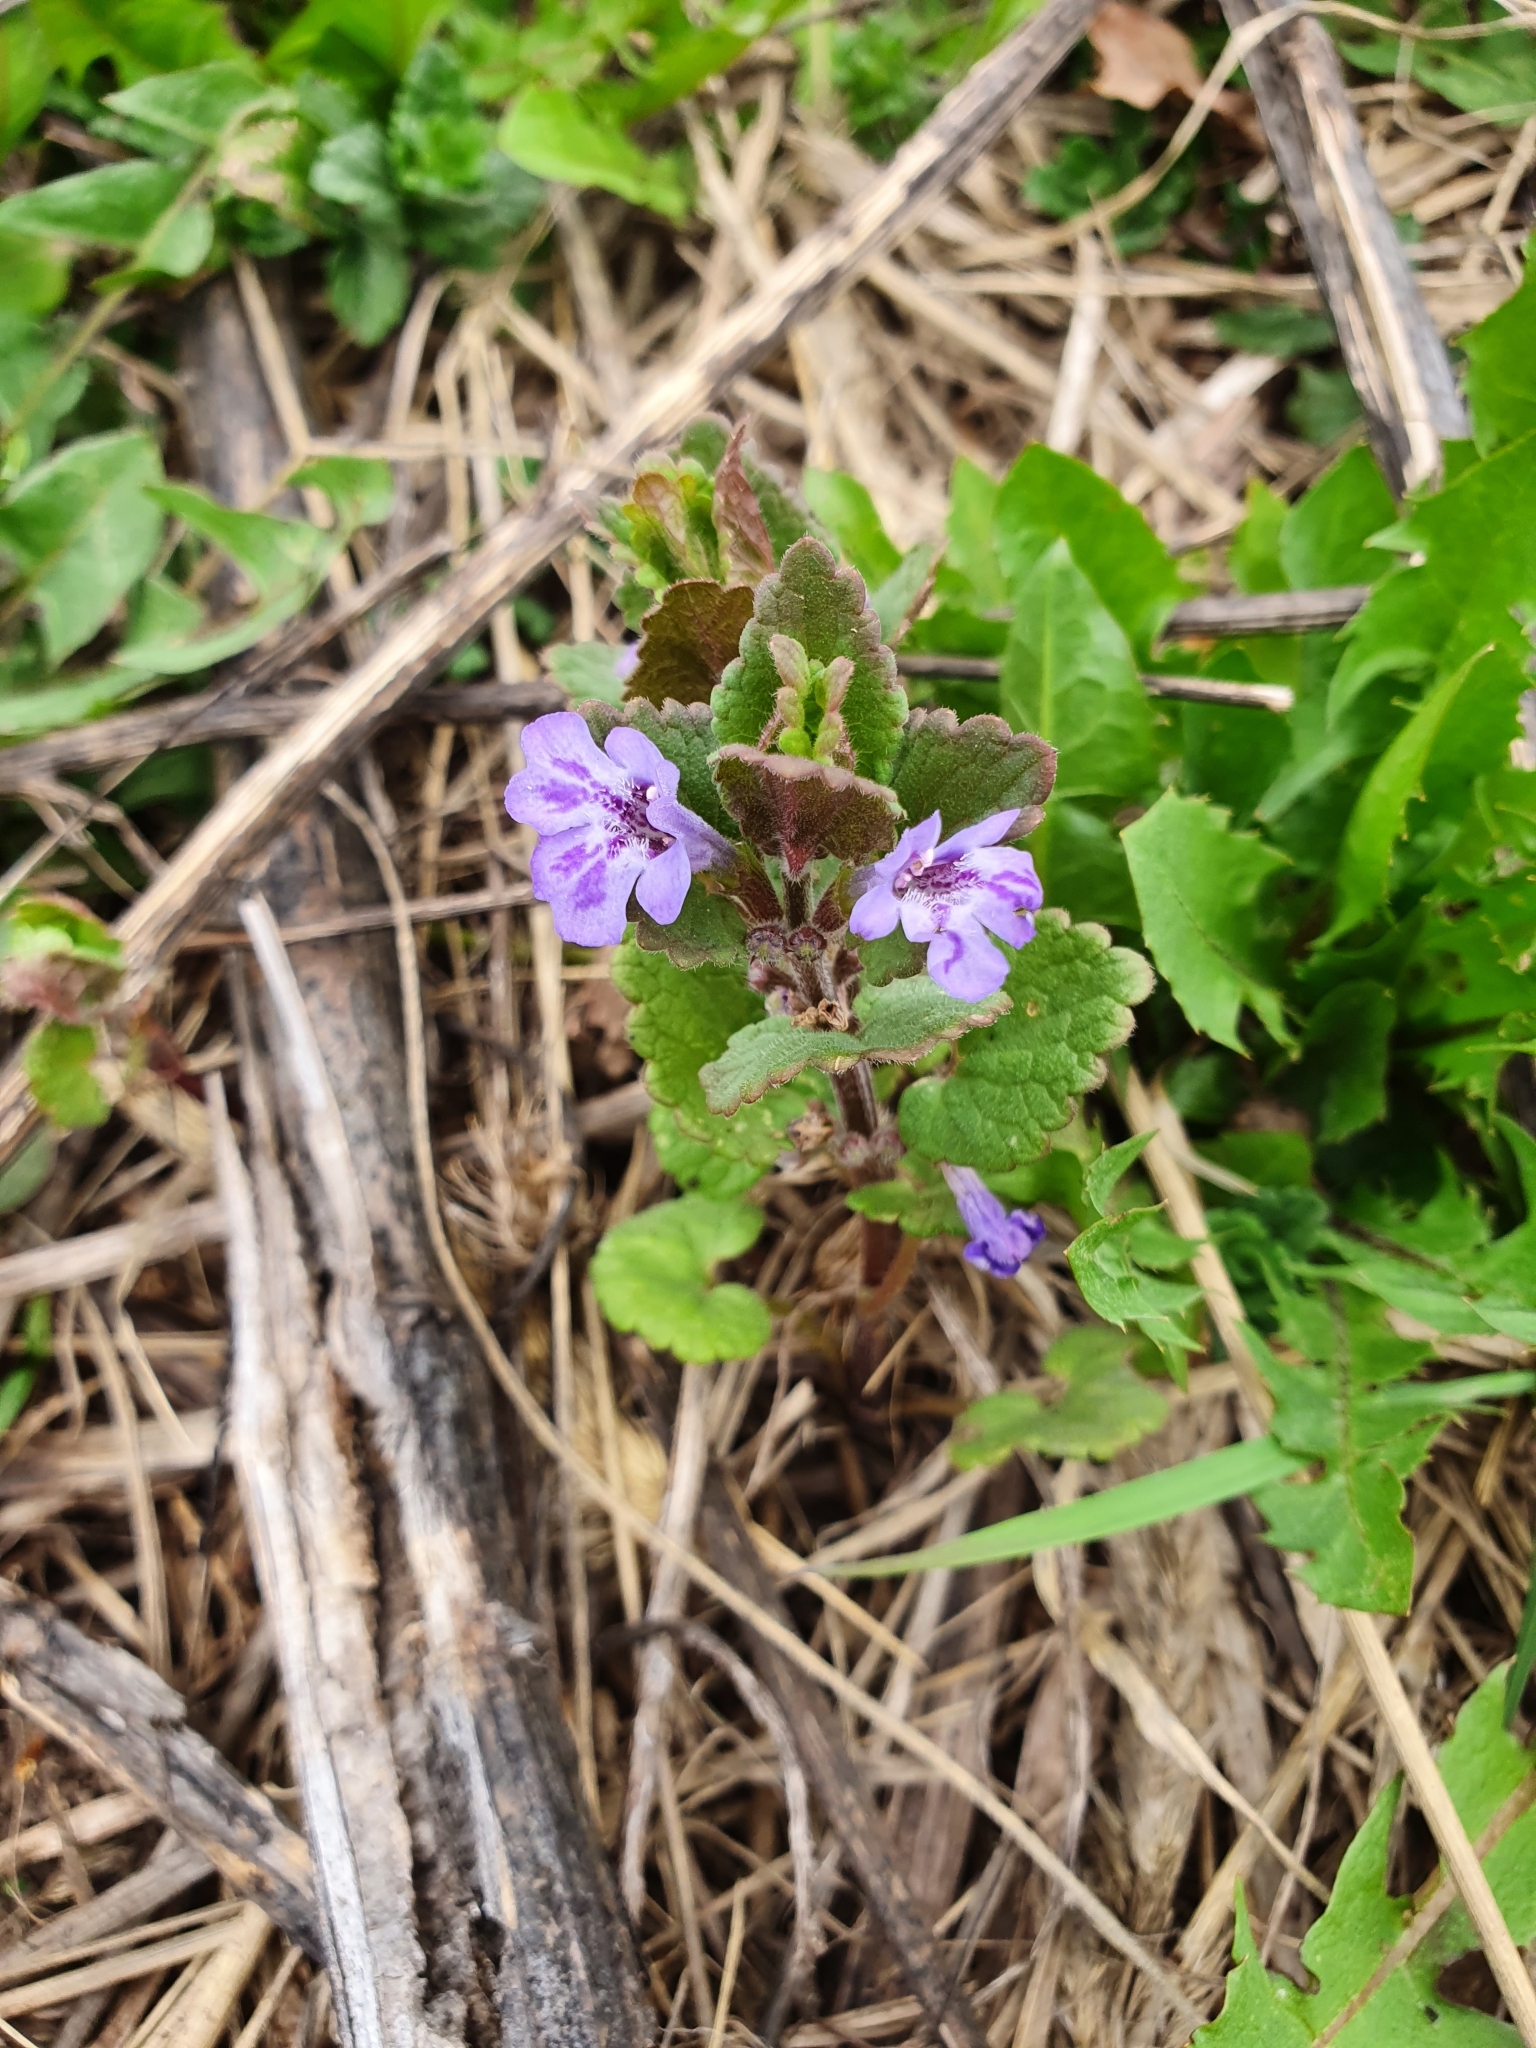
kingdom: Plantae
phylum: Tracheophyta
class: Magnoliopsida
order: Lamiales
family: Lamiaceae
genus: Glechoma
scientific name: Glechoma hederacea
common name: Ground ivy
